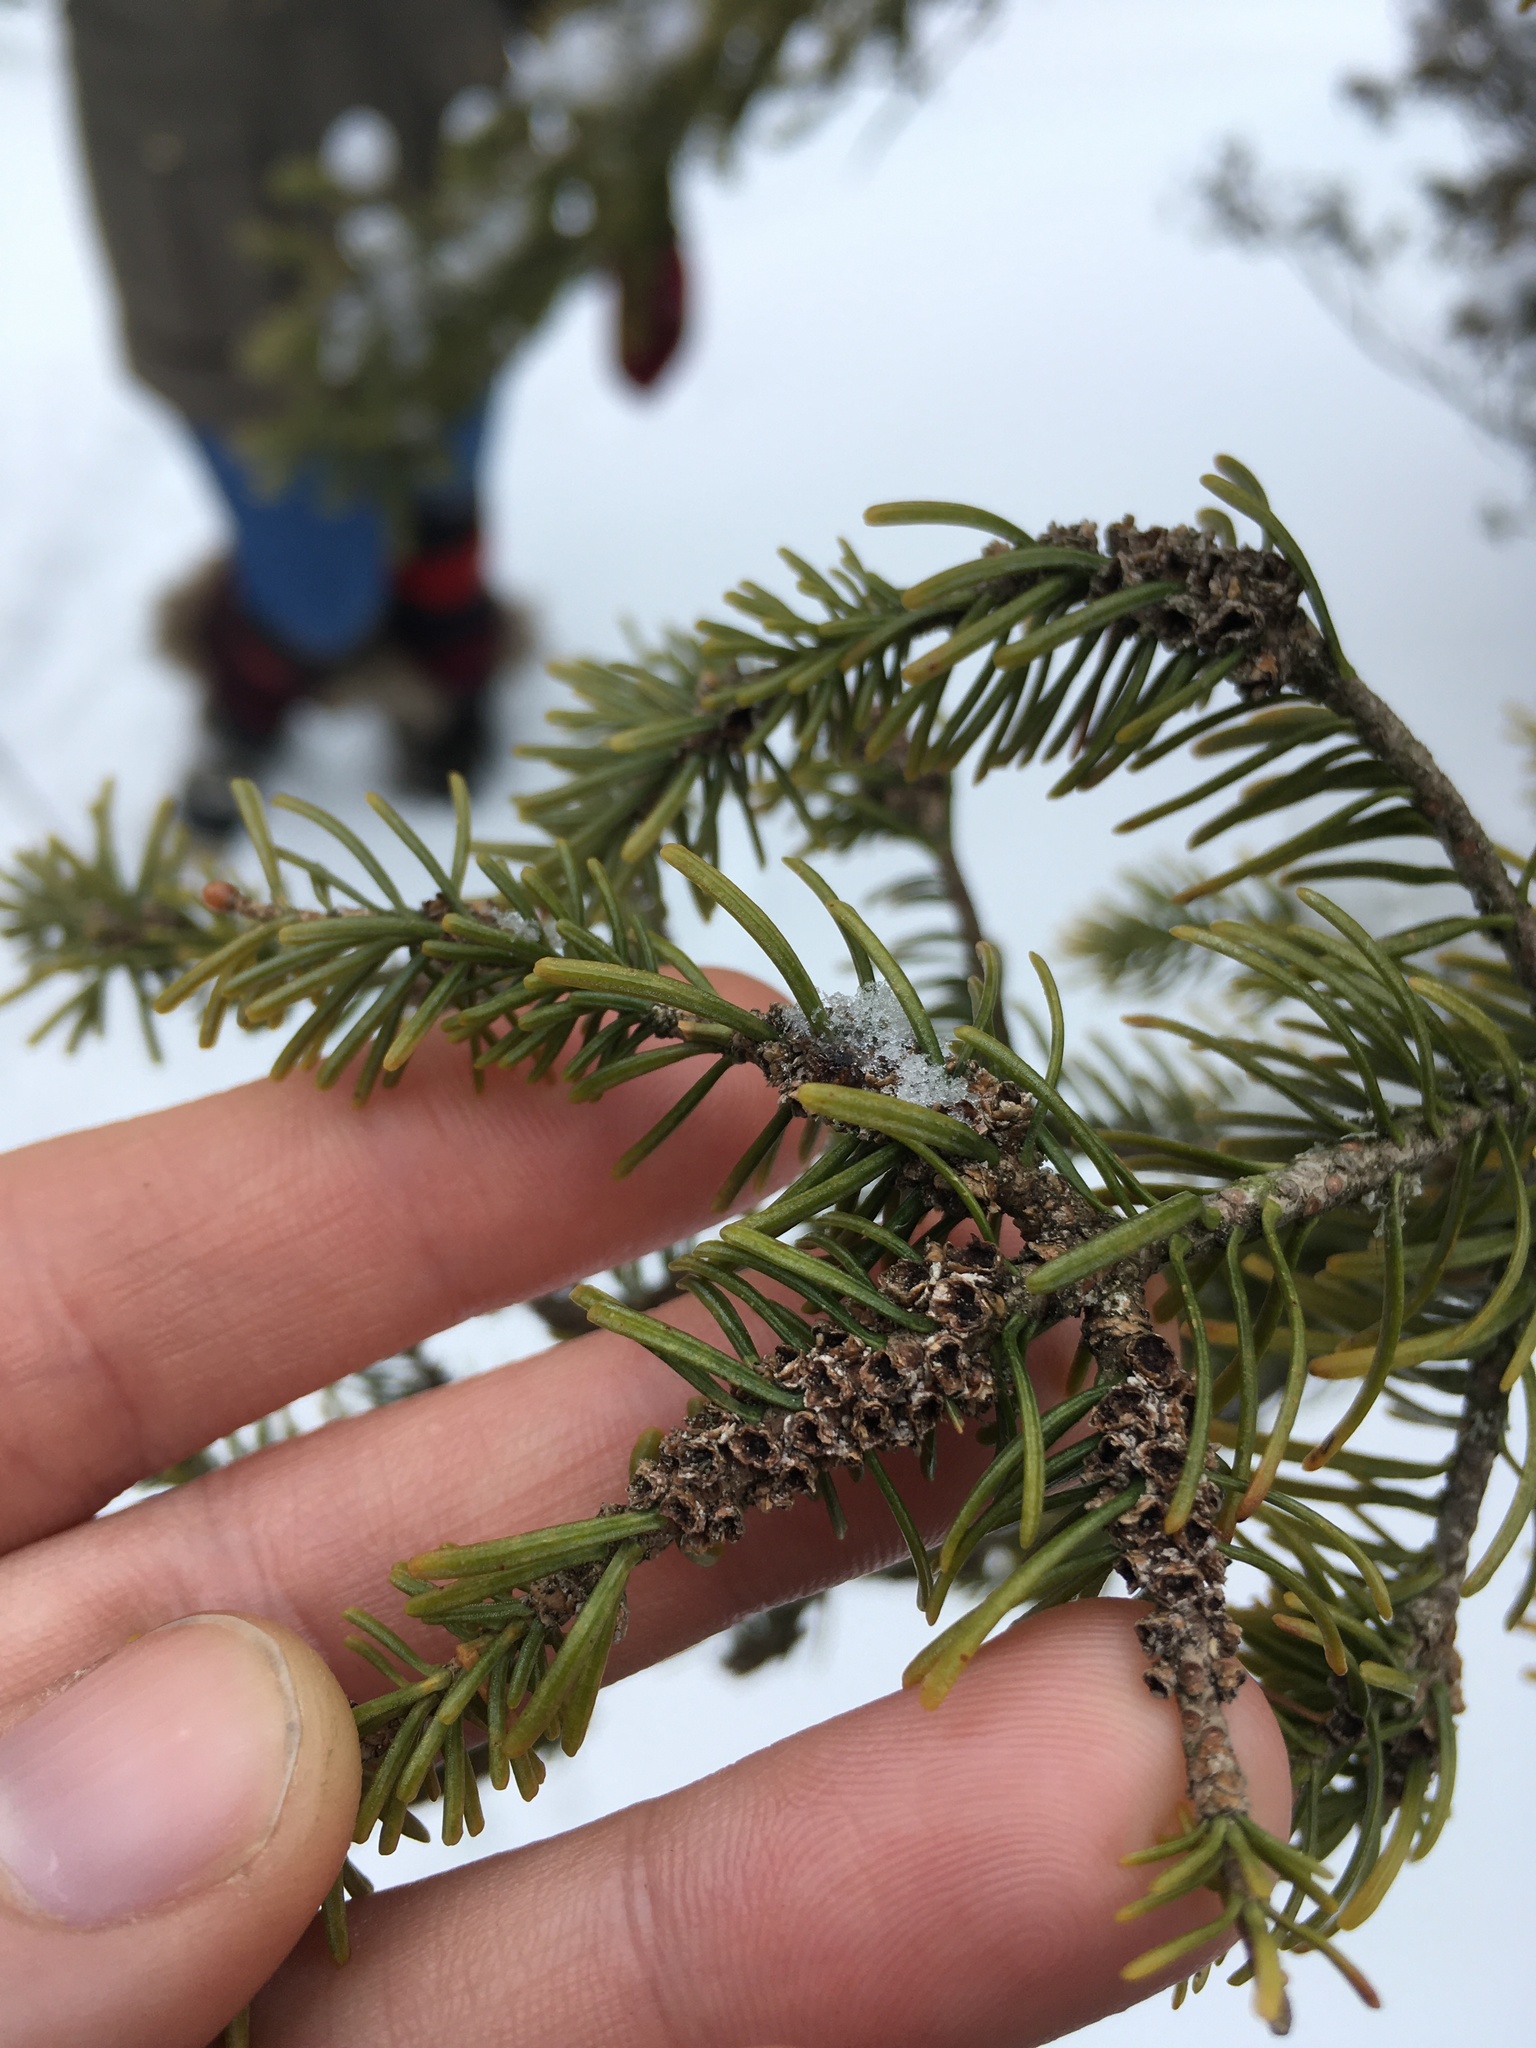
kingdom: Plantae
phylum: Tracheophyta
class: Pinopsida
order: Pinales
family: Pinaceae
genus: Abies
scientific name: Abies balsamea
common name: Balsam fir
